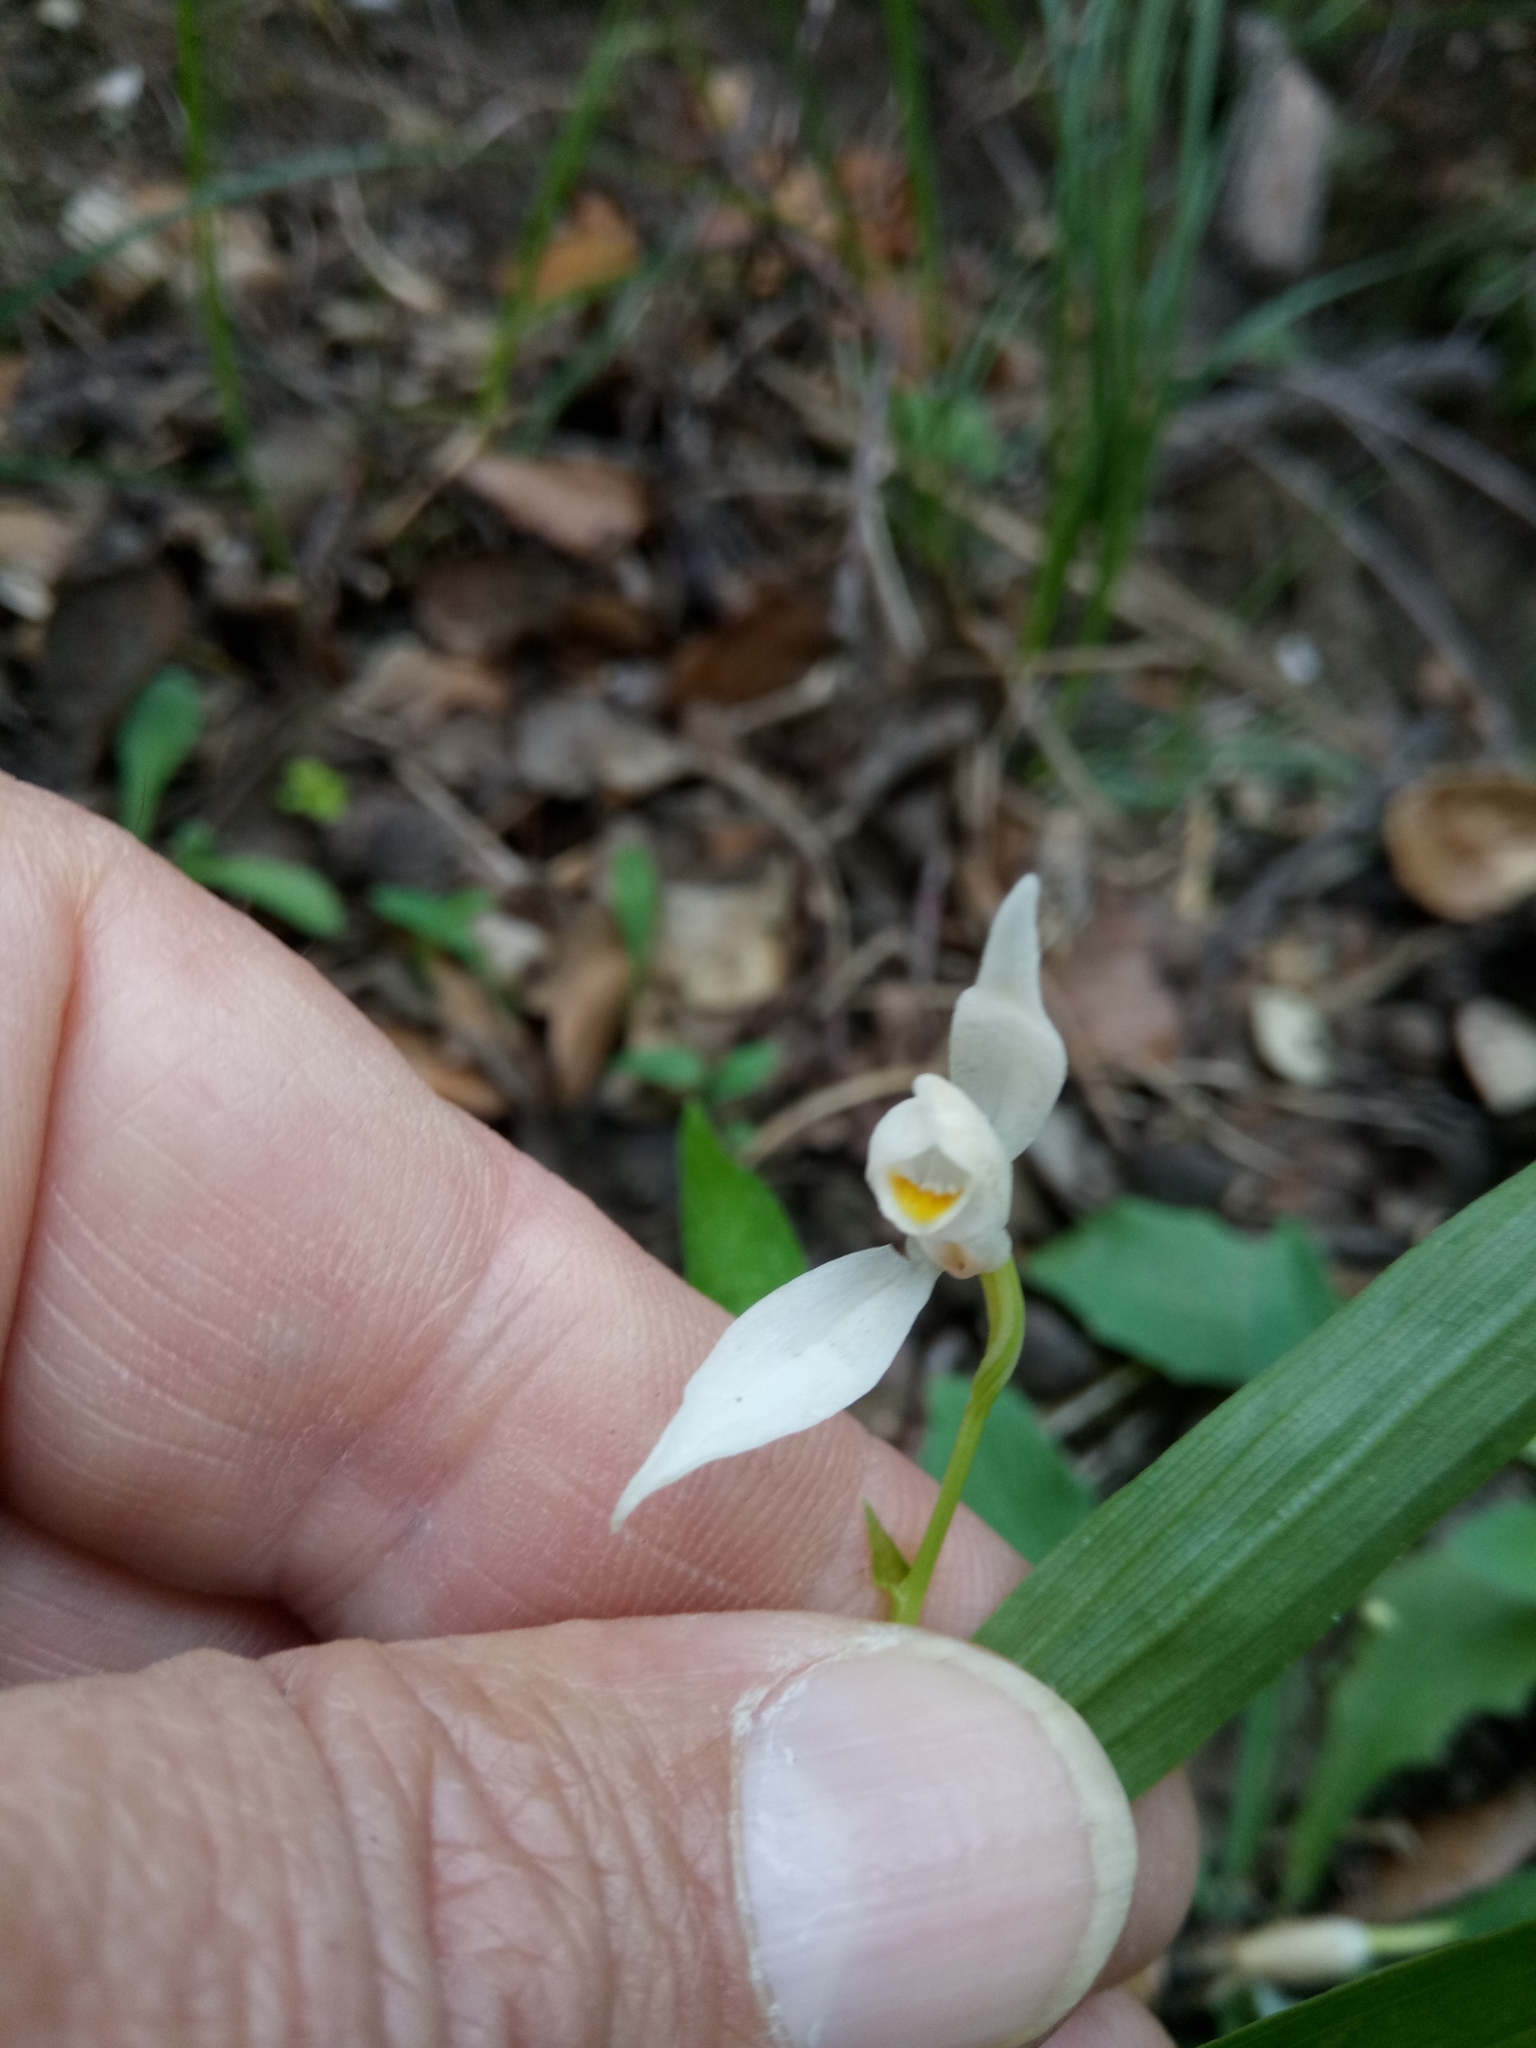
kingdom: Plantae
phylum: Tracheophyta
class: Liliopsida
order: Asparagales
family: Orchidaceae
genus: Cephalanthera
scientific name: Cephalanthera longifolia
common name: Narrow-leaved helleborine
